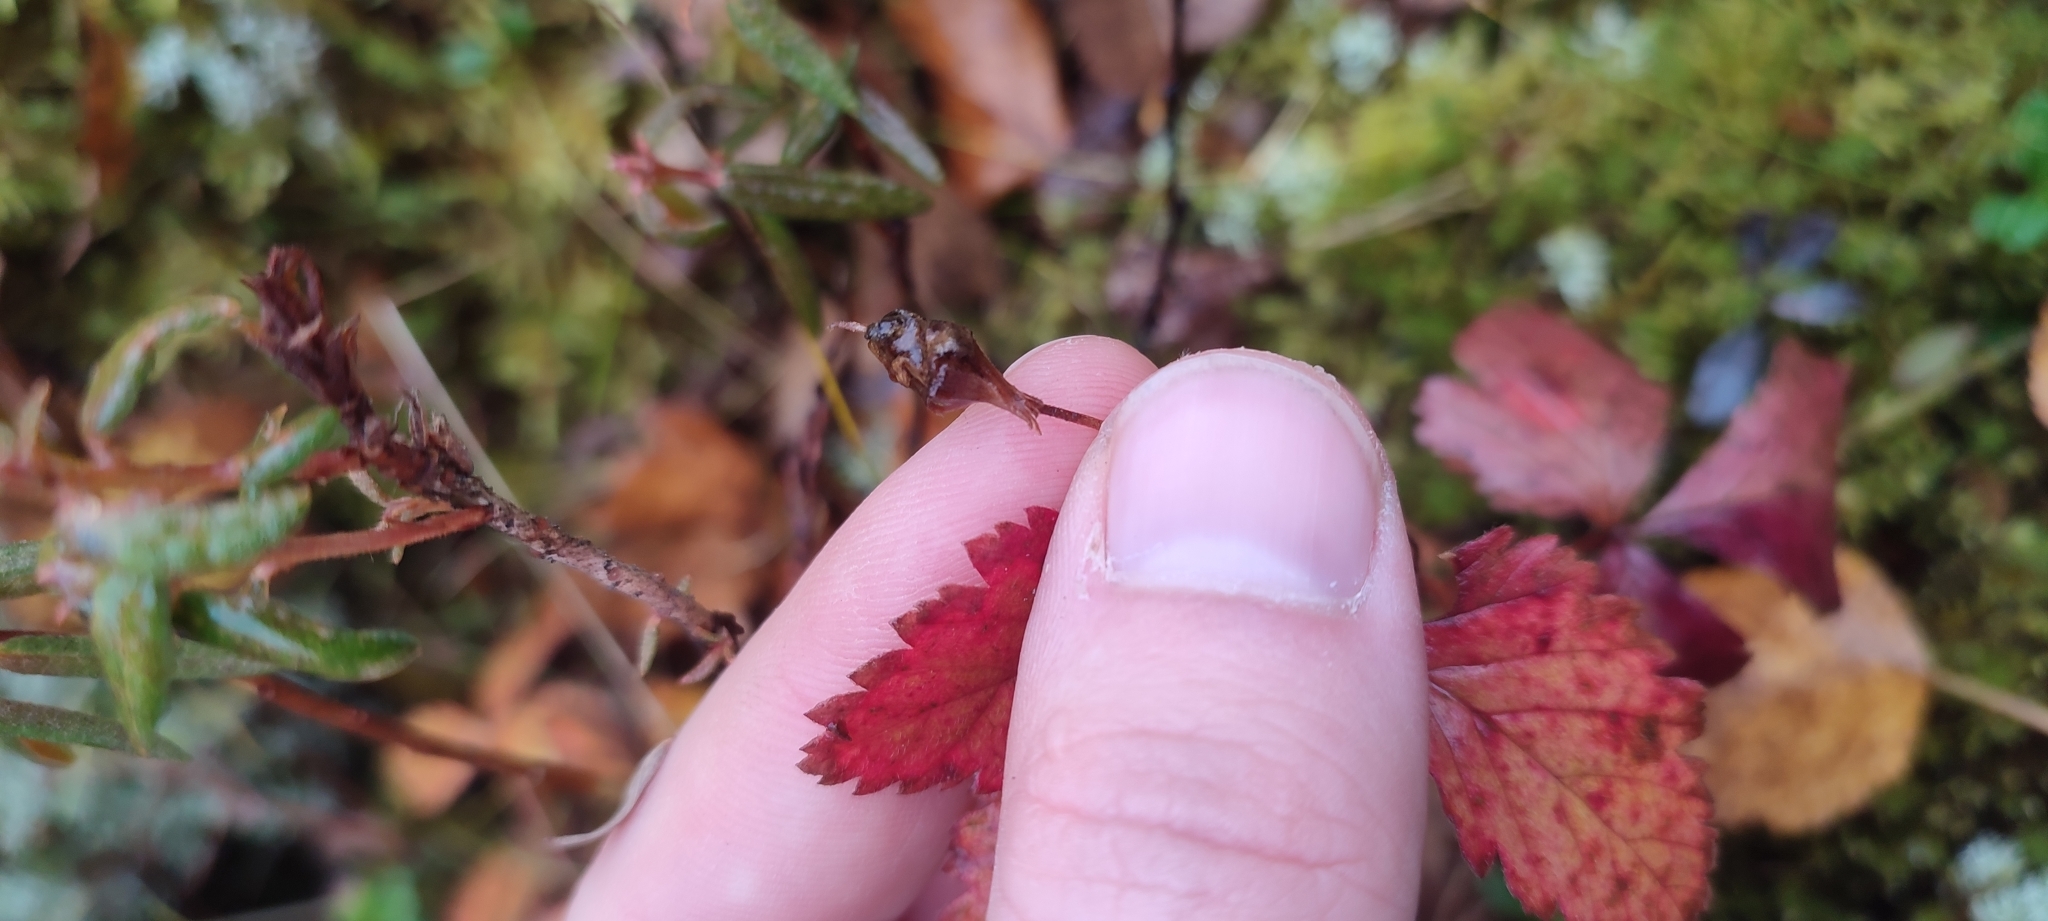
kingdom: Plantae
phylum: Tracheophyta
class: Magnoliopsida
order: Rosales
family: Rosaceae
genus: Rubus
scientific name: Rubus arcticus
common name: Arctic bramble
